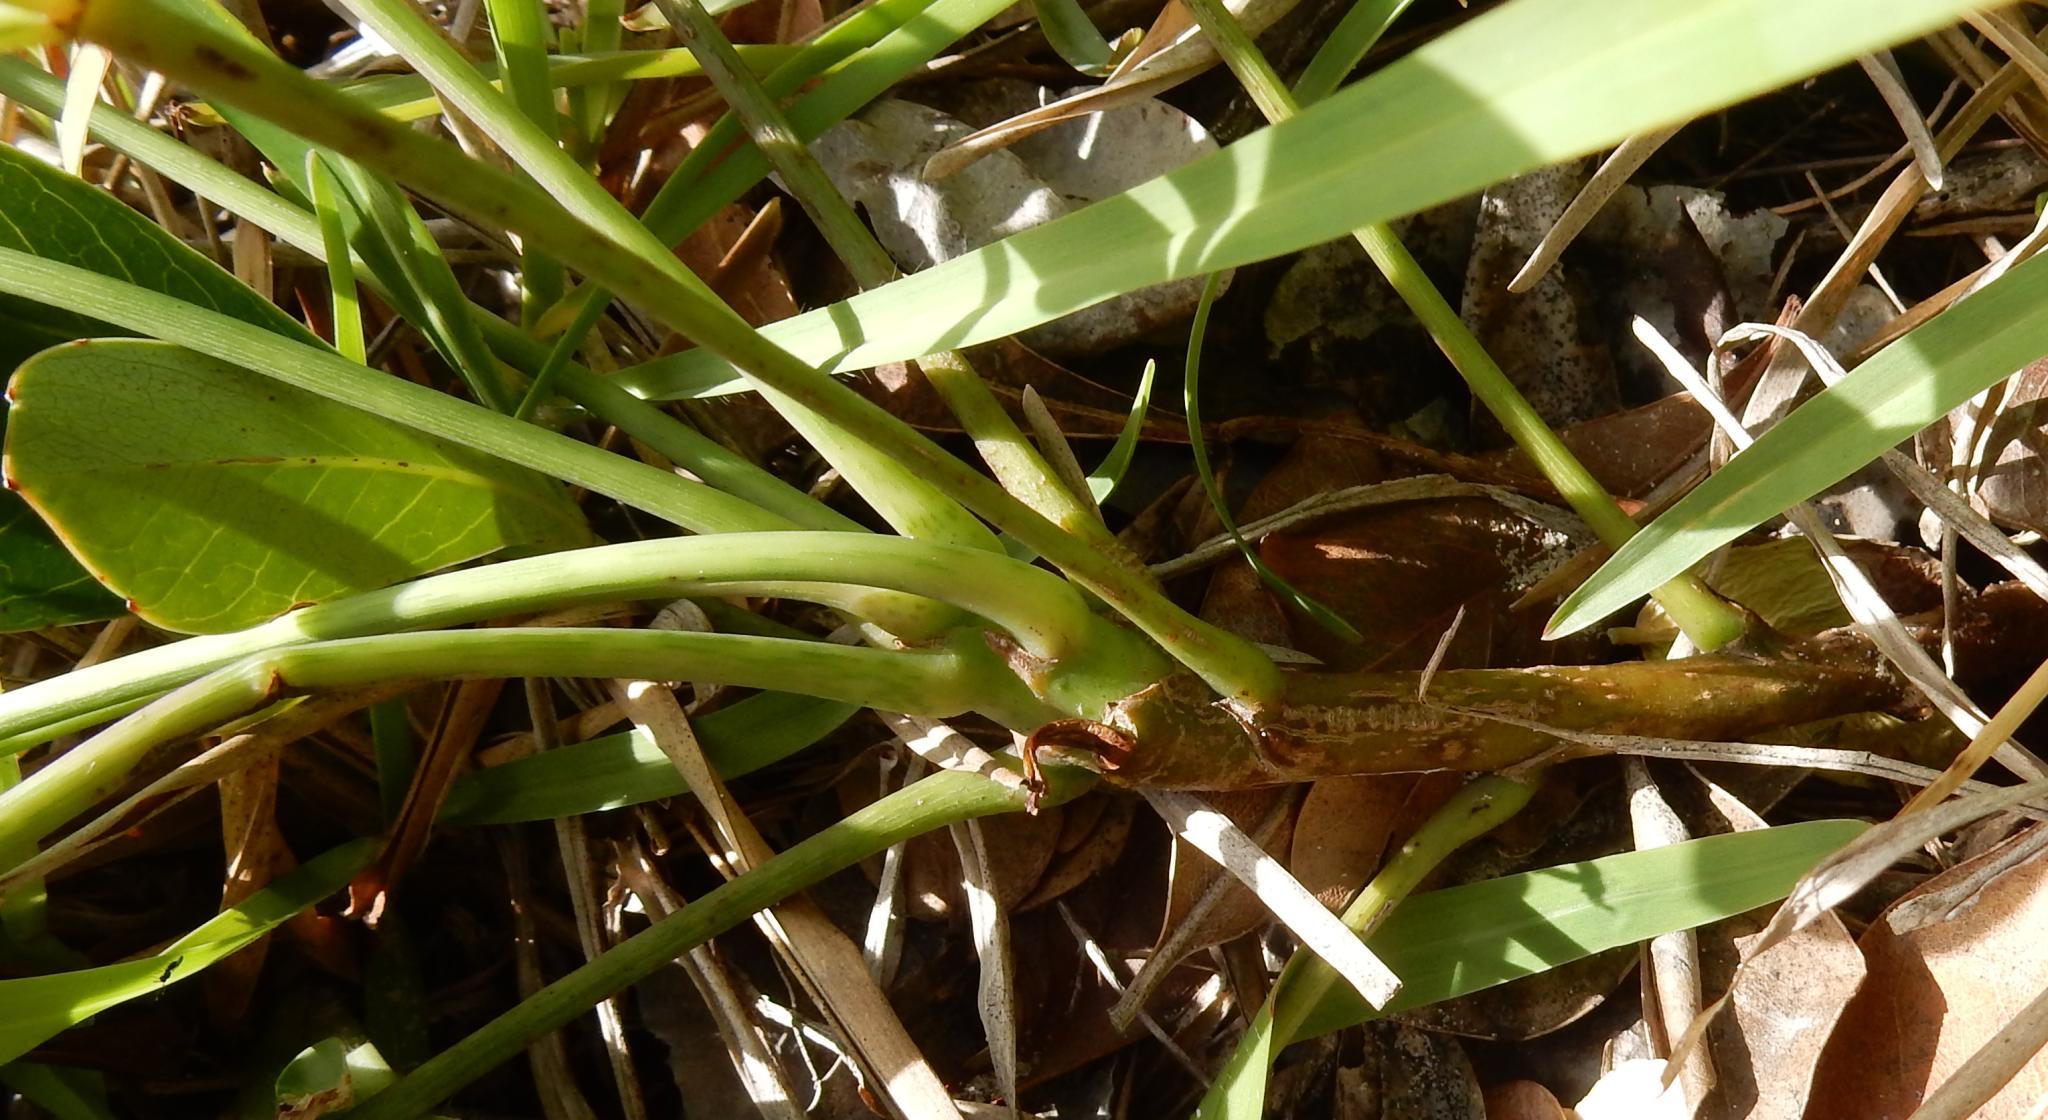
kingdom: Plantae
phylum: Tracheophyta
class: Magnoliopsida
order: Apiales
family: Araliaceae
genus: Cussonia
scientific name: Cussonia thyrsiflora
